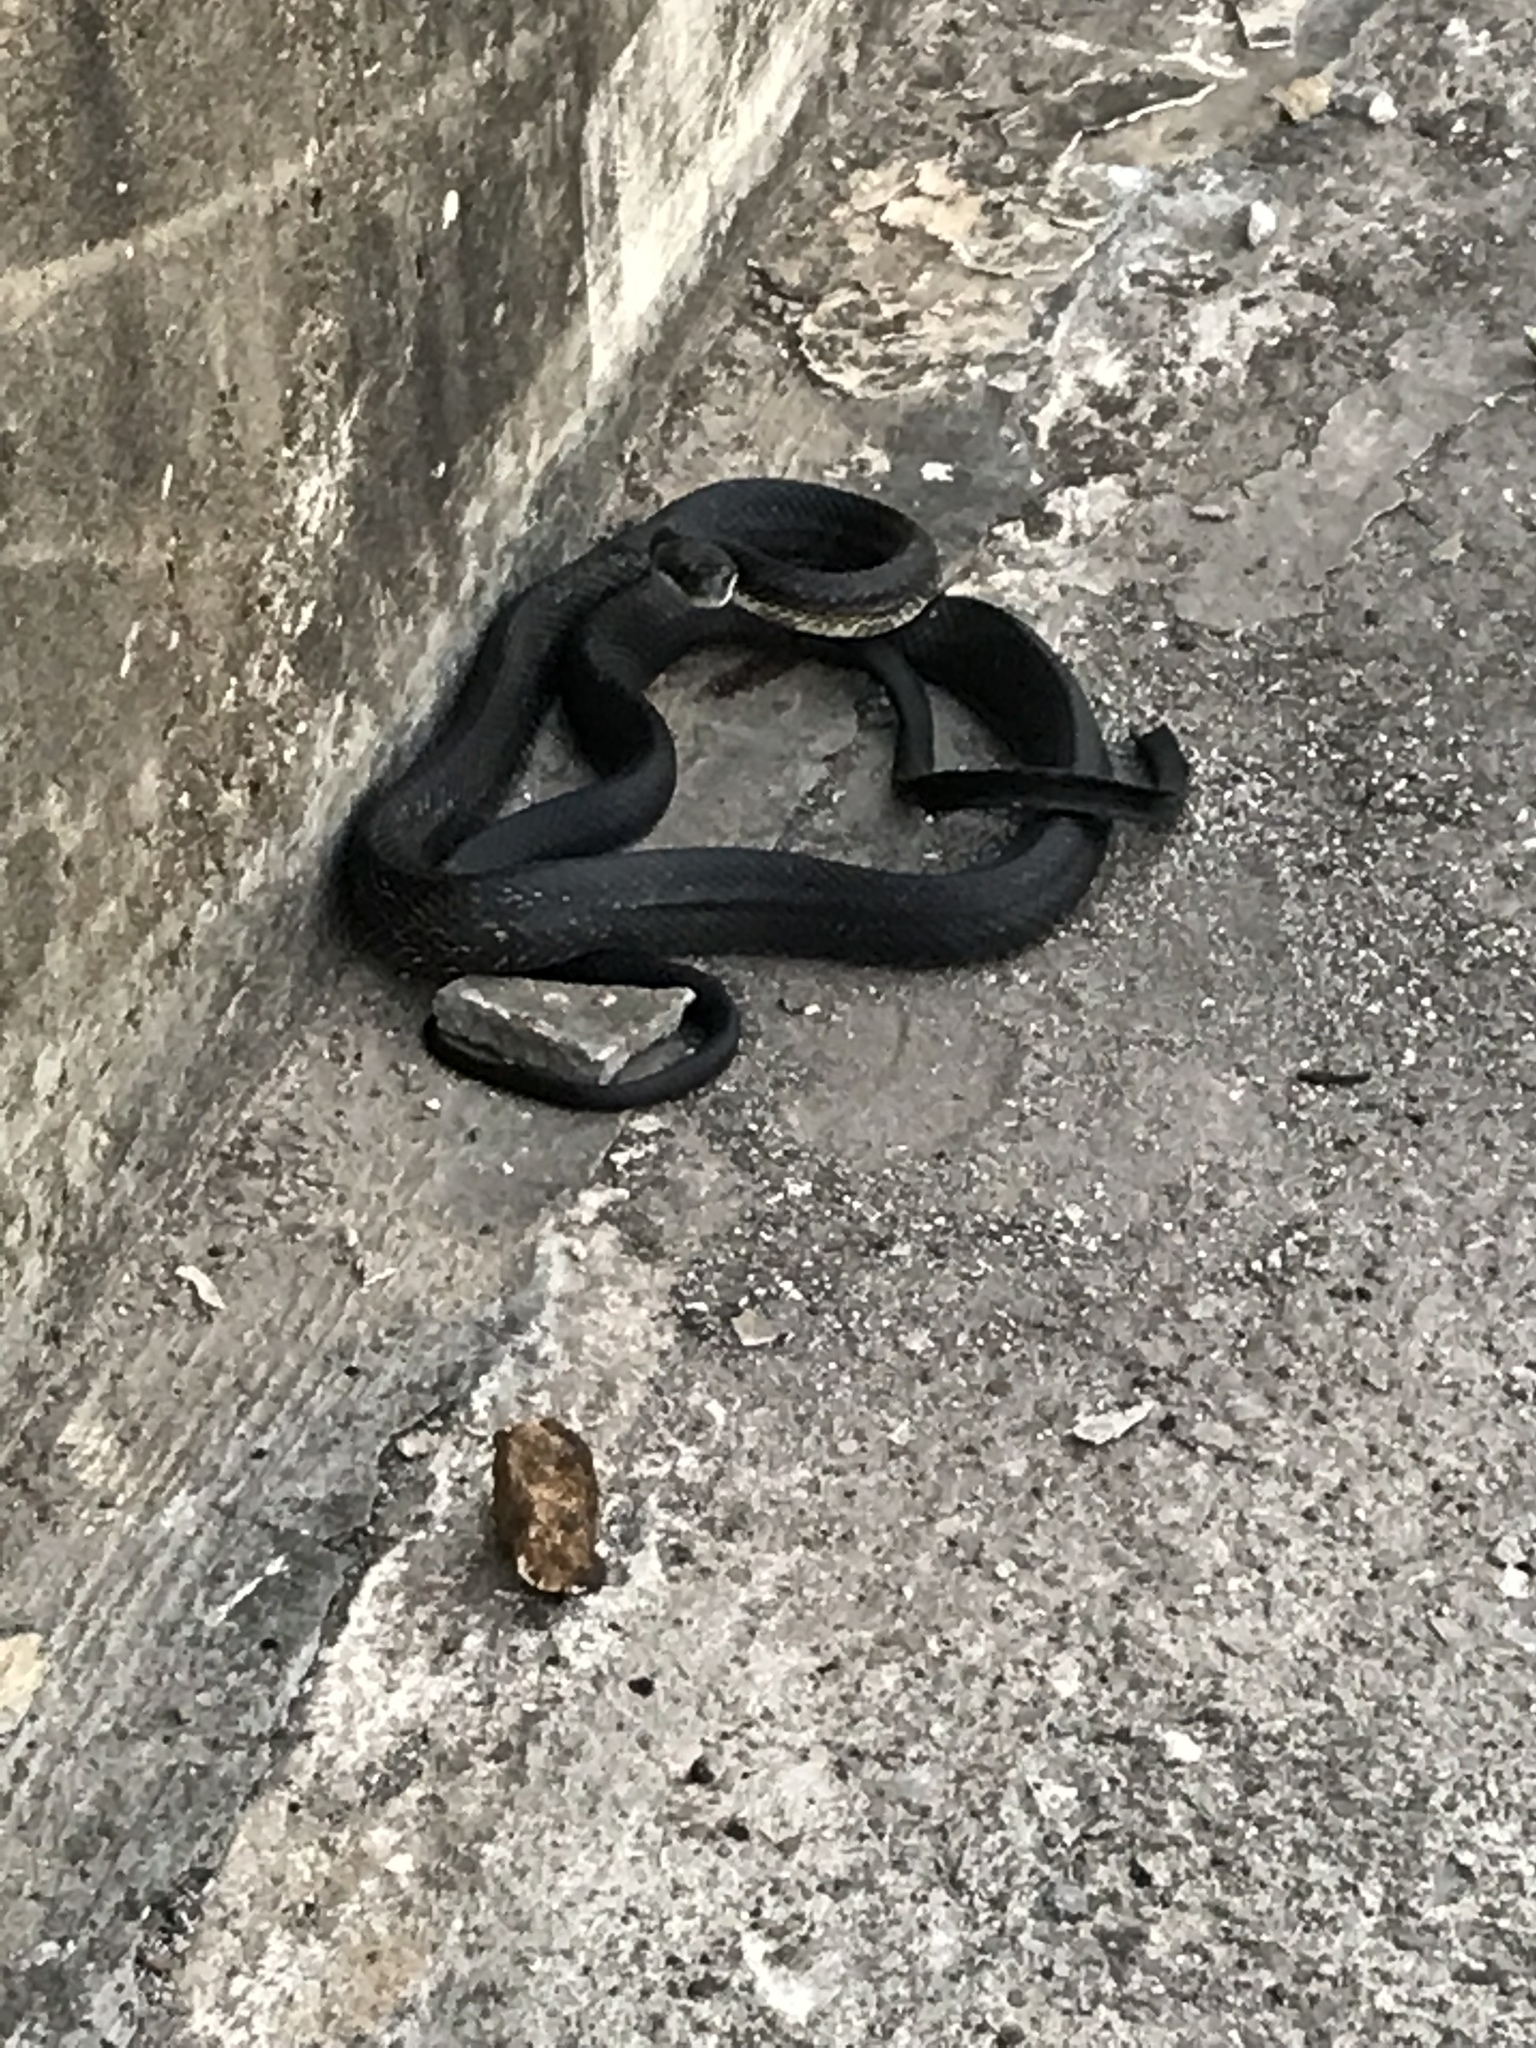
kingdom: Animalia
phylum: Chordata
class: Squamata
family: Colubridae
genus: Pantherophis
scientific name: Pantherophis obsoletus
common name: Black rat snake
